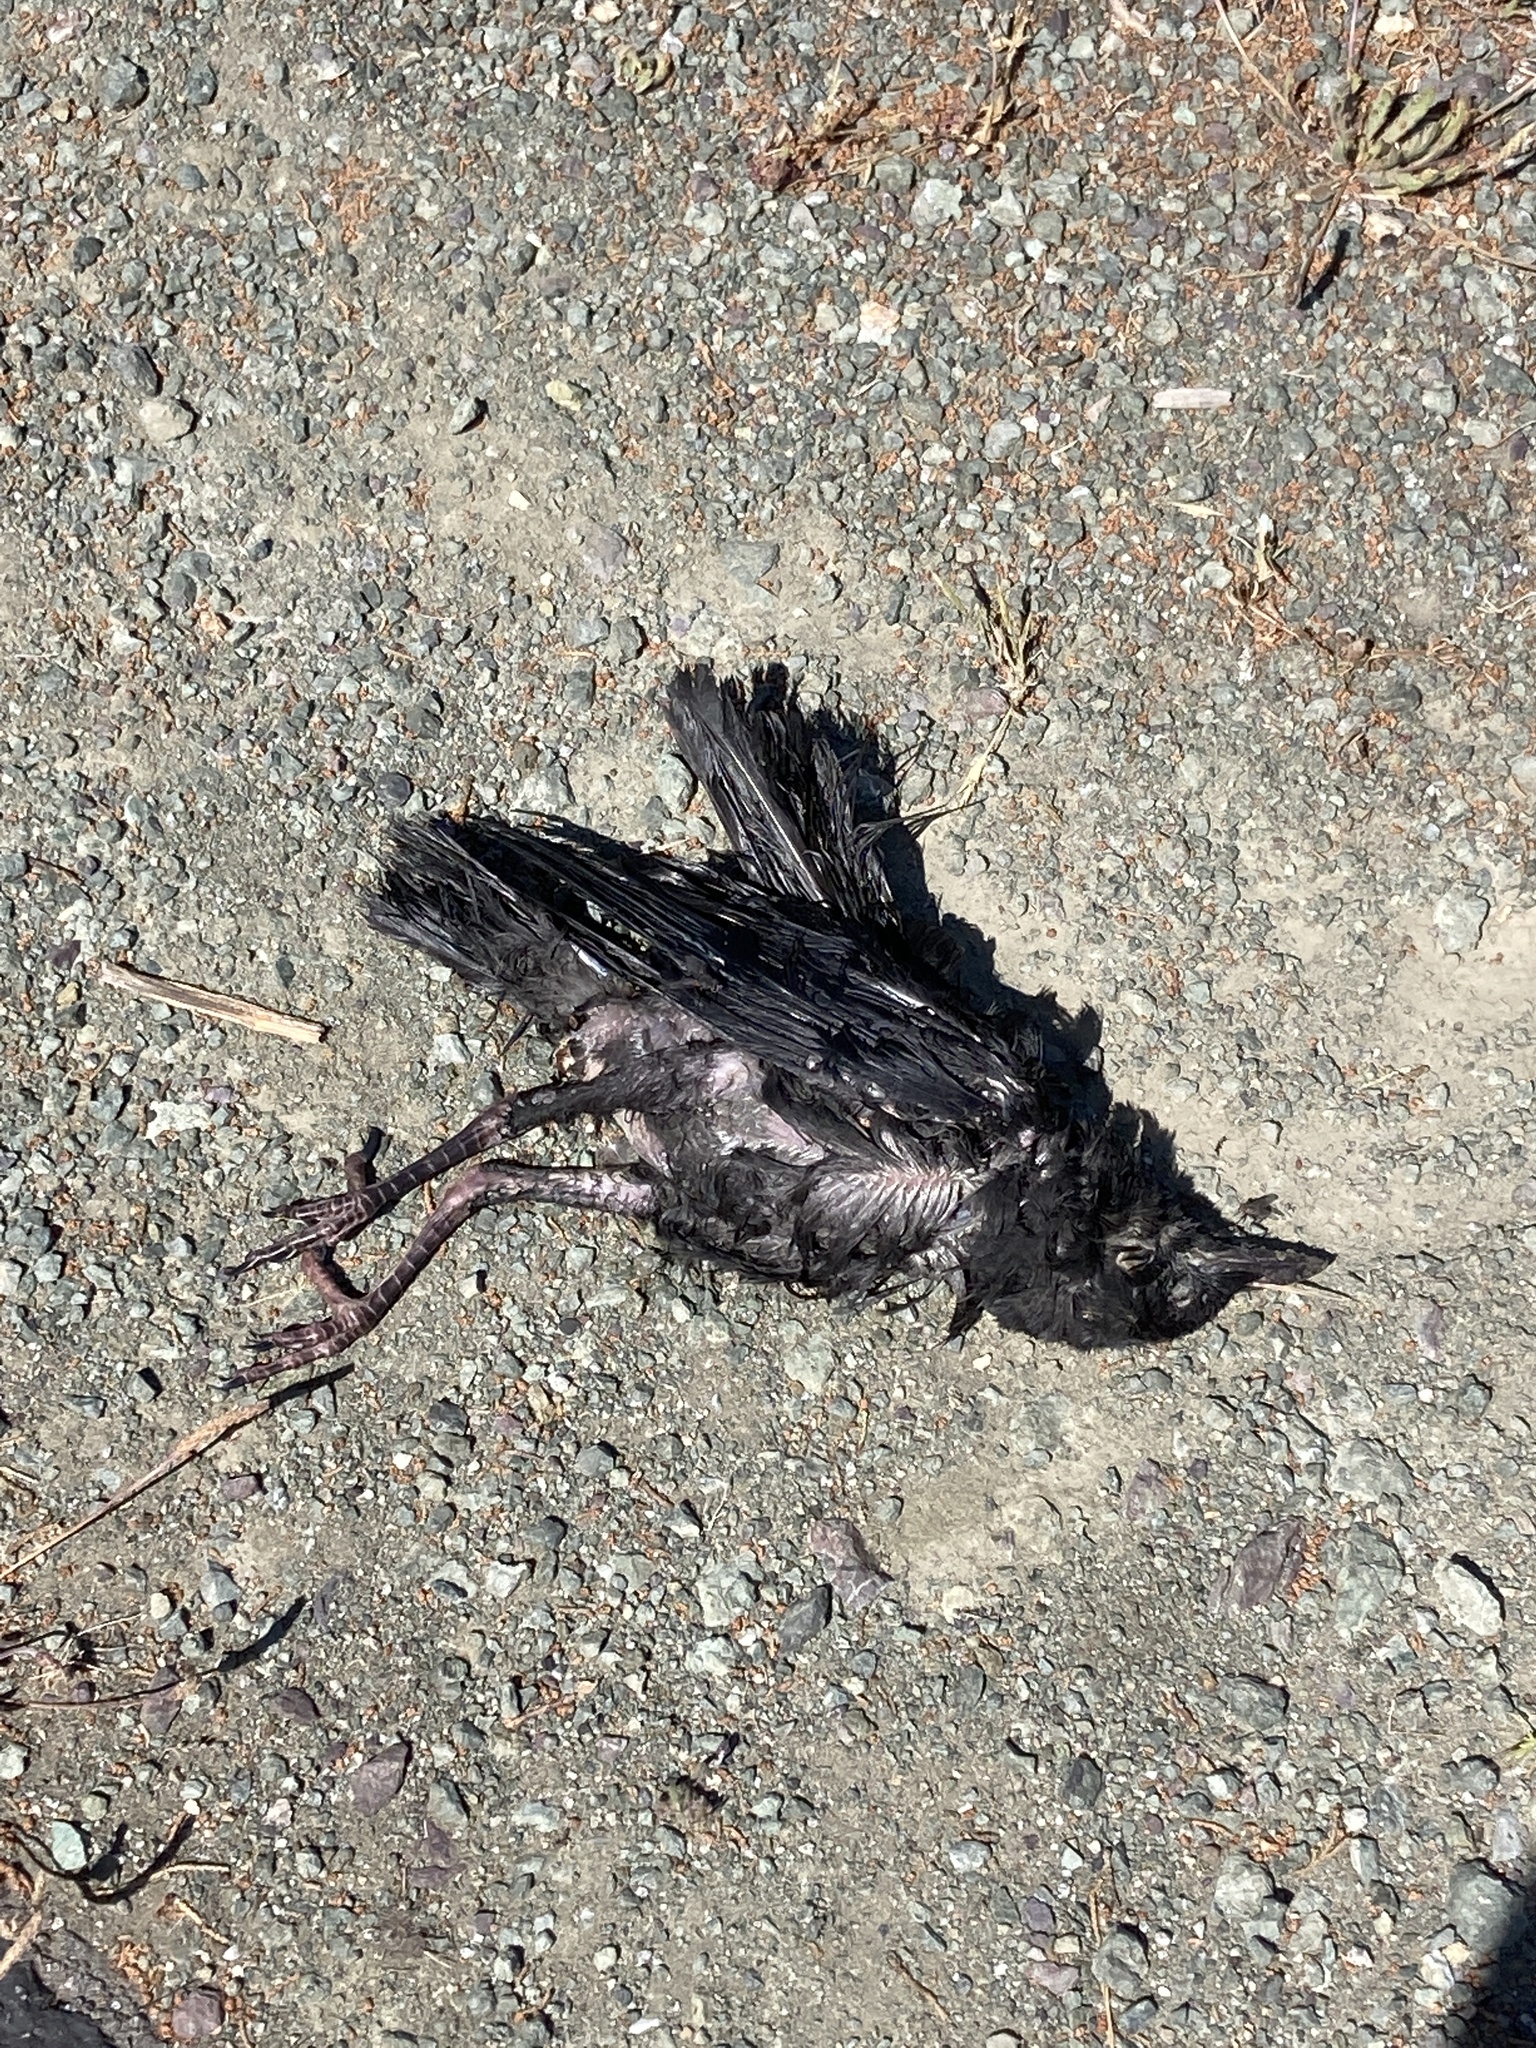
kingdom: Animalia
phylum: Chordata
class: Aves
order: Passeriformes
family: Corvidae
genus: Corvus
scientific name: Corvus brachyrhynchos
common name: American crow
